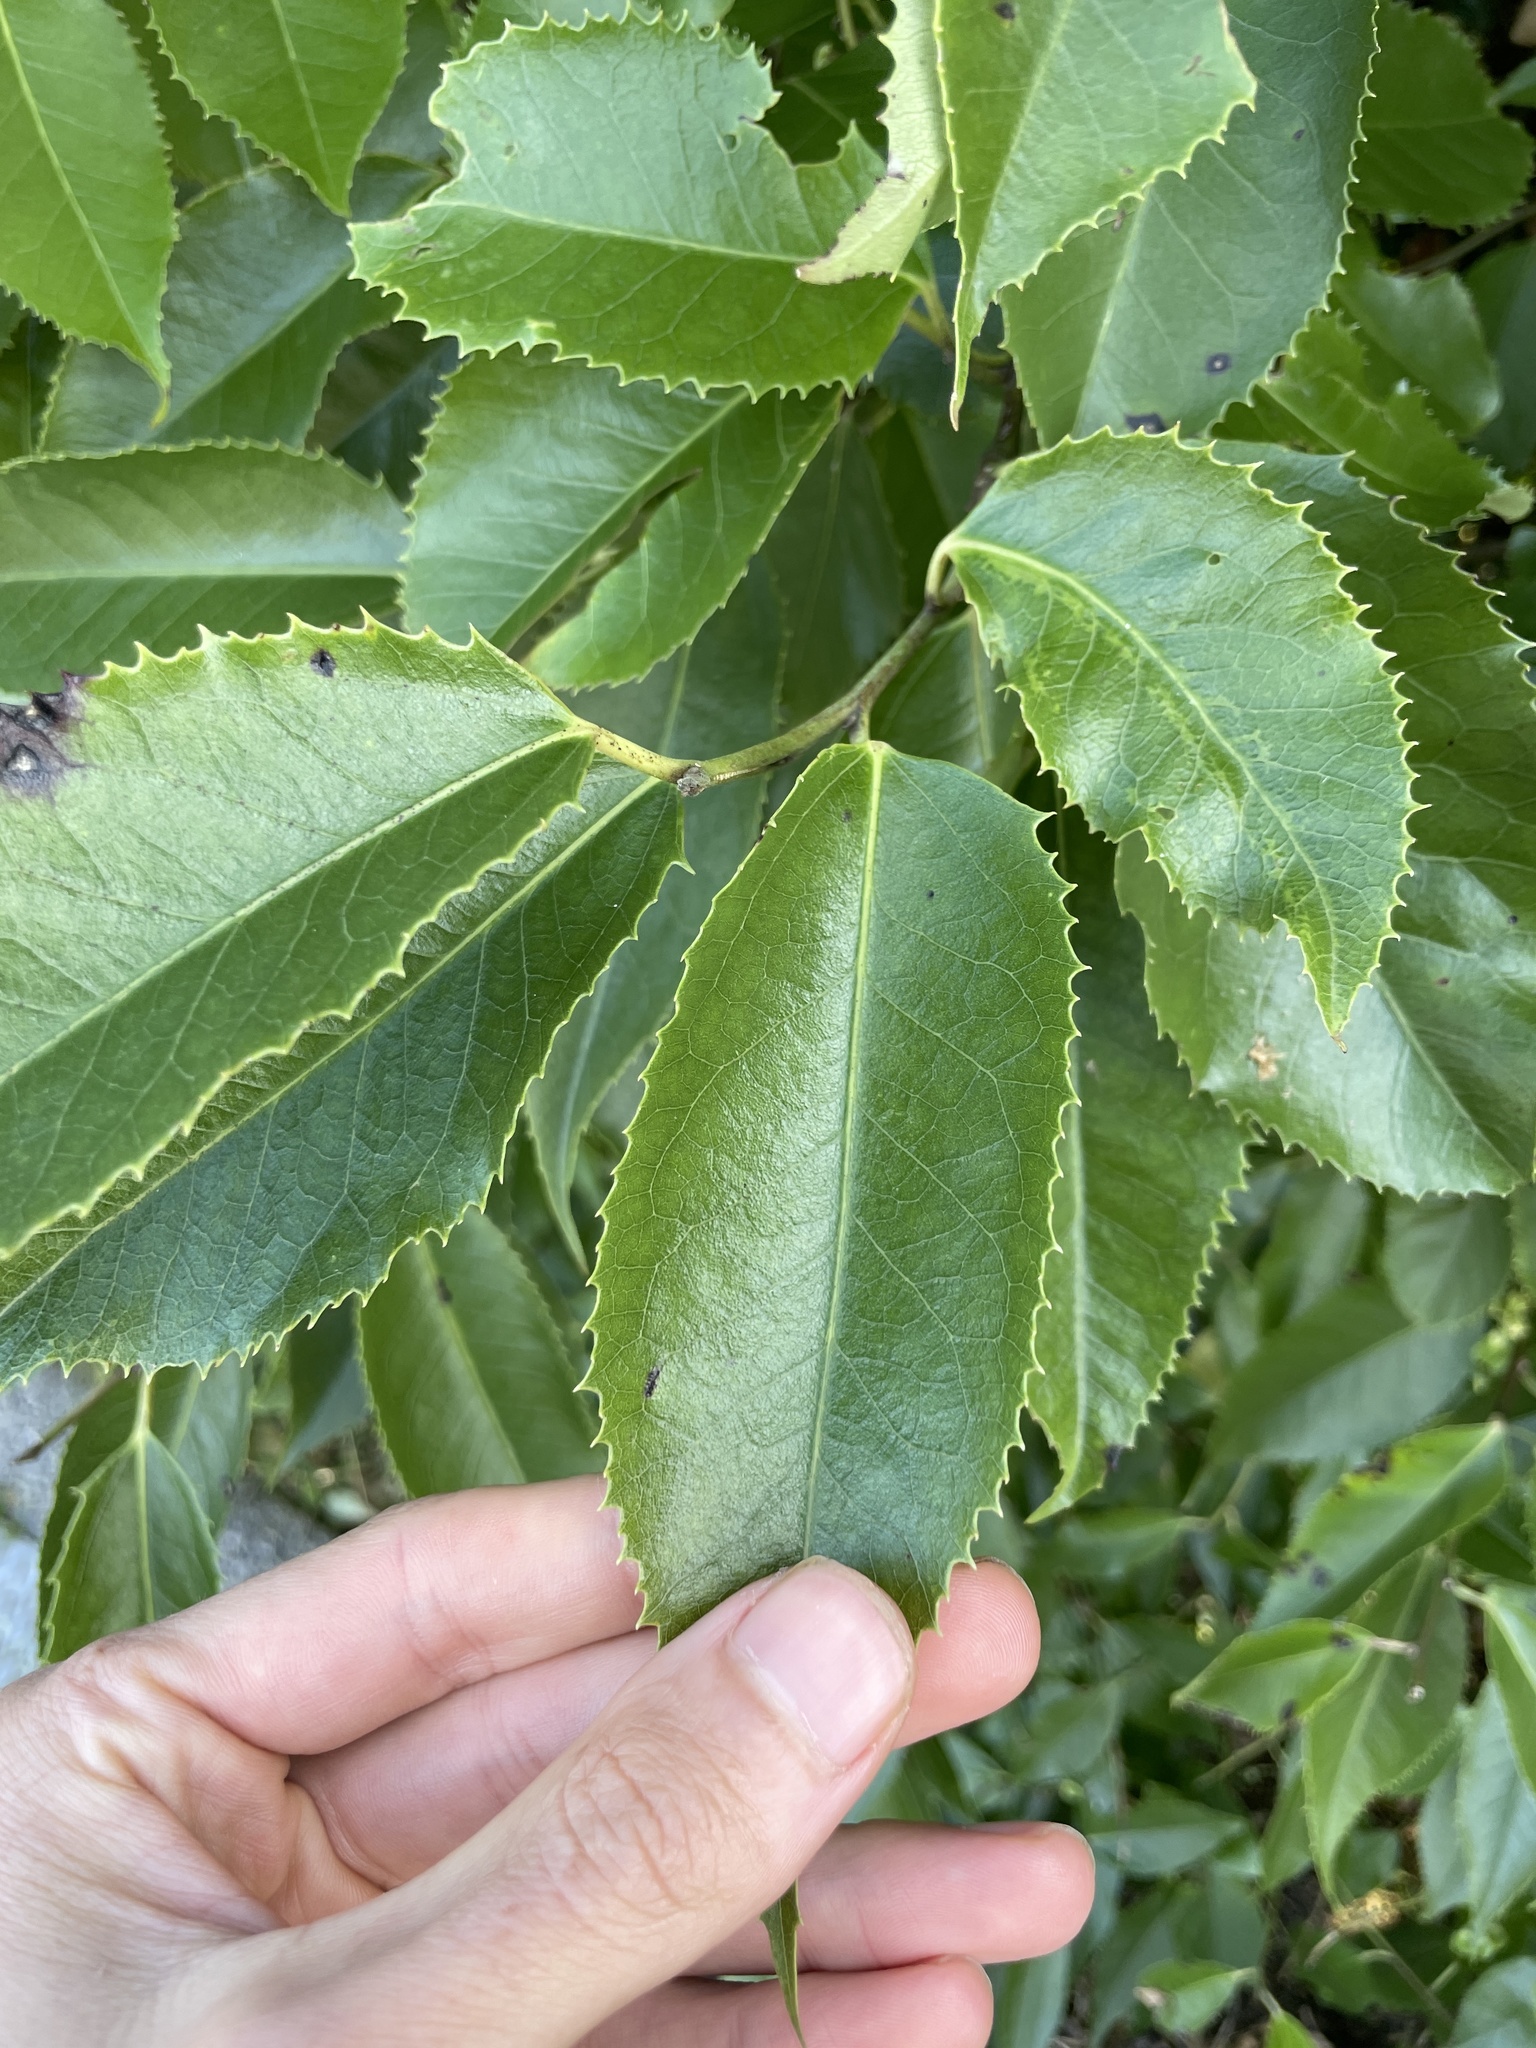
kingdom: Plantae
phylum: Tracheophyta
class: Magnoliopsida
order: Malvales
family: Malvaceae
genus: Hoheria
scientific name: Hoheria sexstylosa
